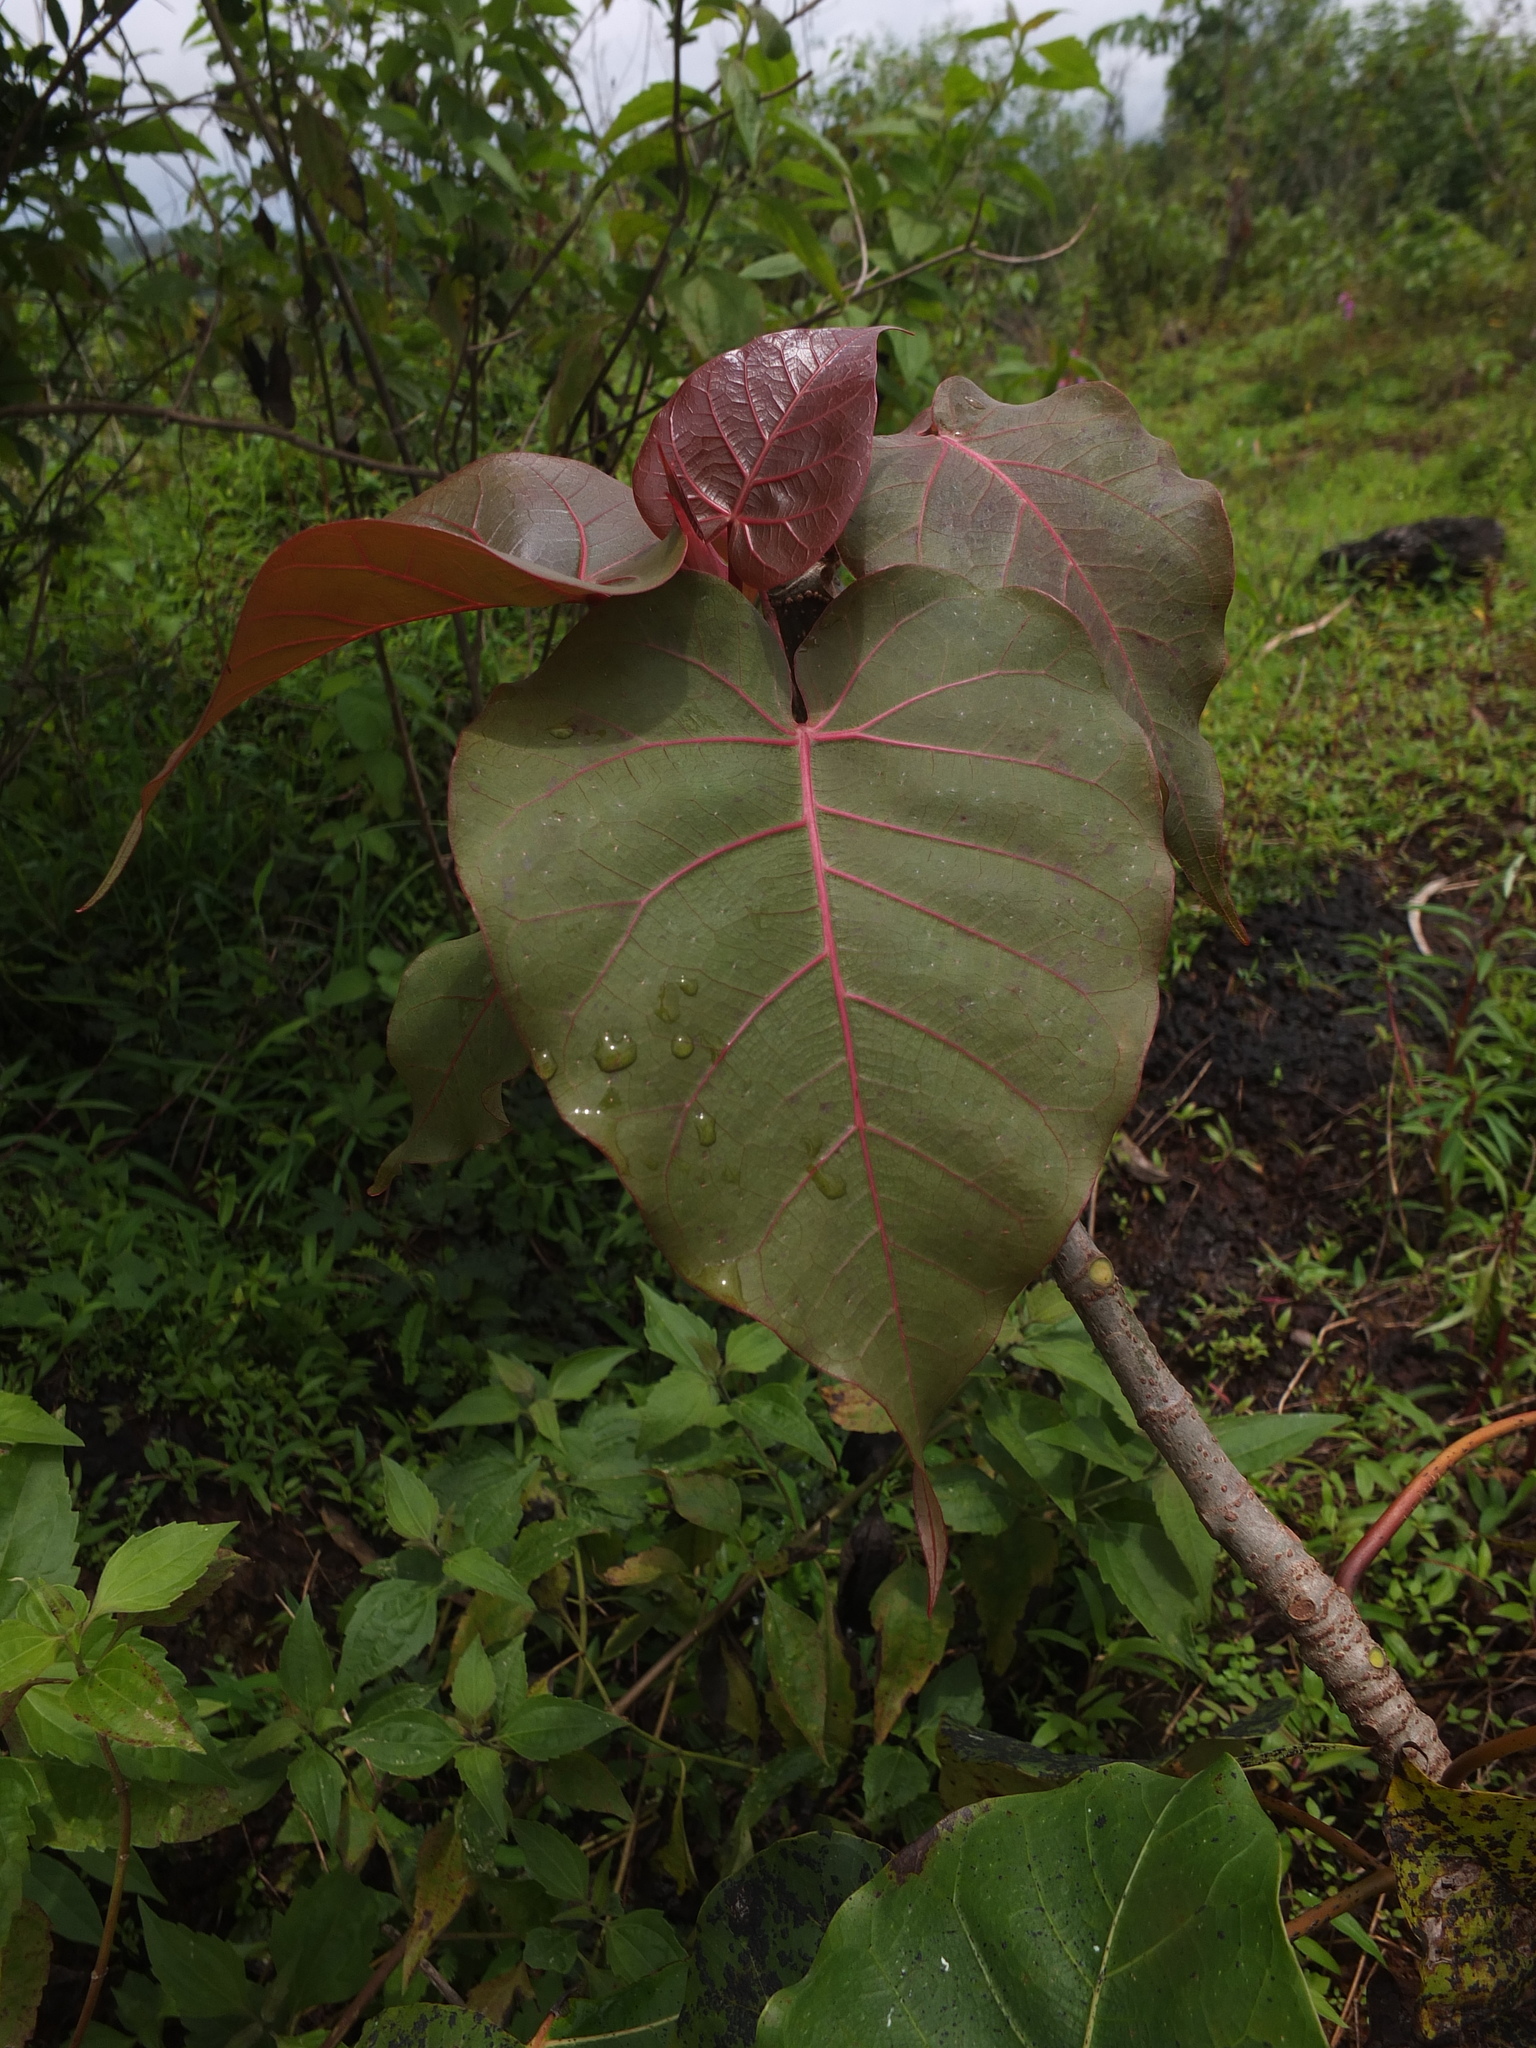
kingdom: Plantae
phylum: Tracheophyta
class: Magnoliopsida
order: Rosales
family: Moraceae
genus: Ficus
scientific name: Ficus arnottiana
